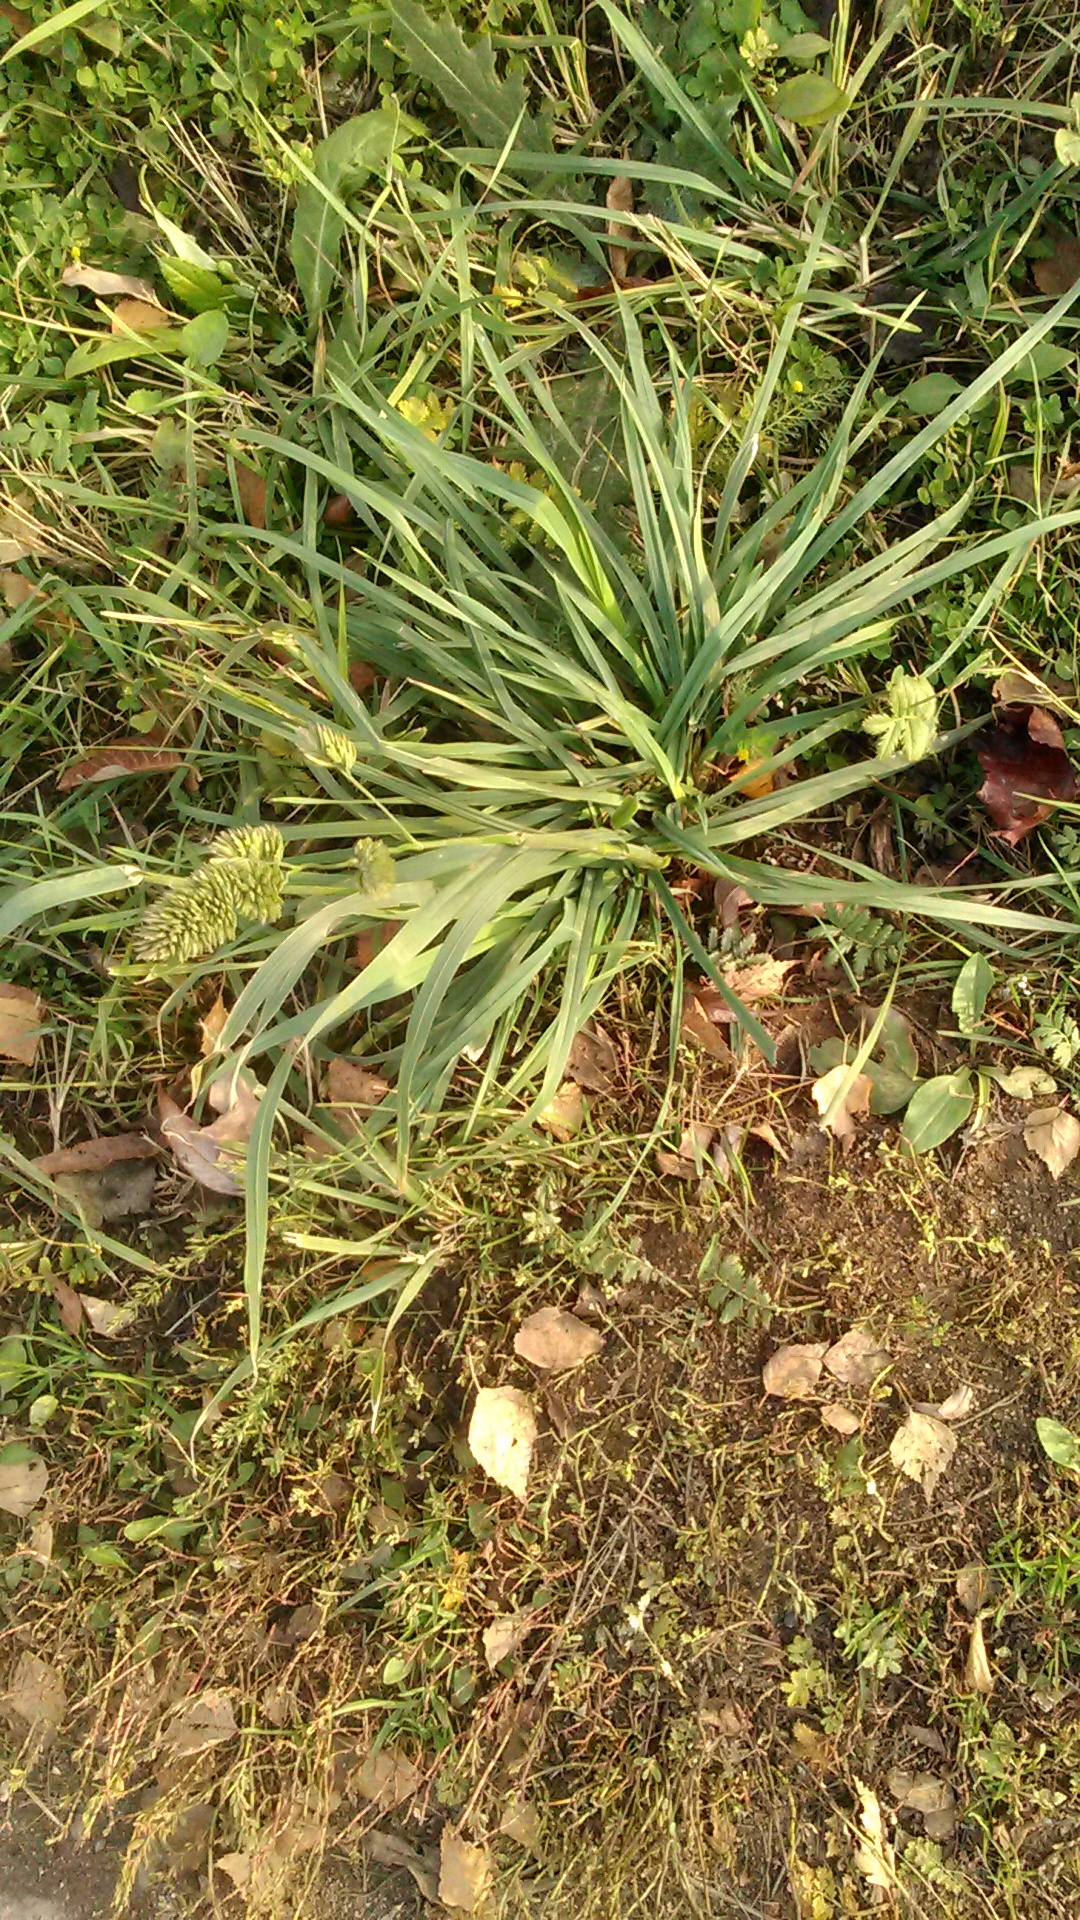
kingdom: Plantae
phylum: Tracheophyta
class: Liliopsida
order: Poales
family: Poaceae
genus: Dactylis
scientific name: Dactylis glomerata
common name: Orchardgrass
